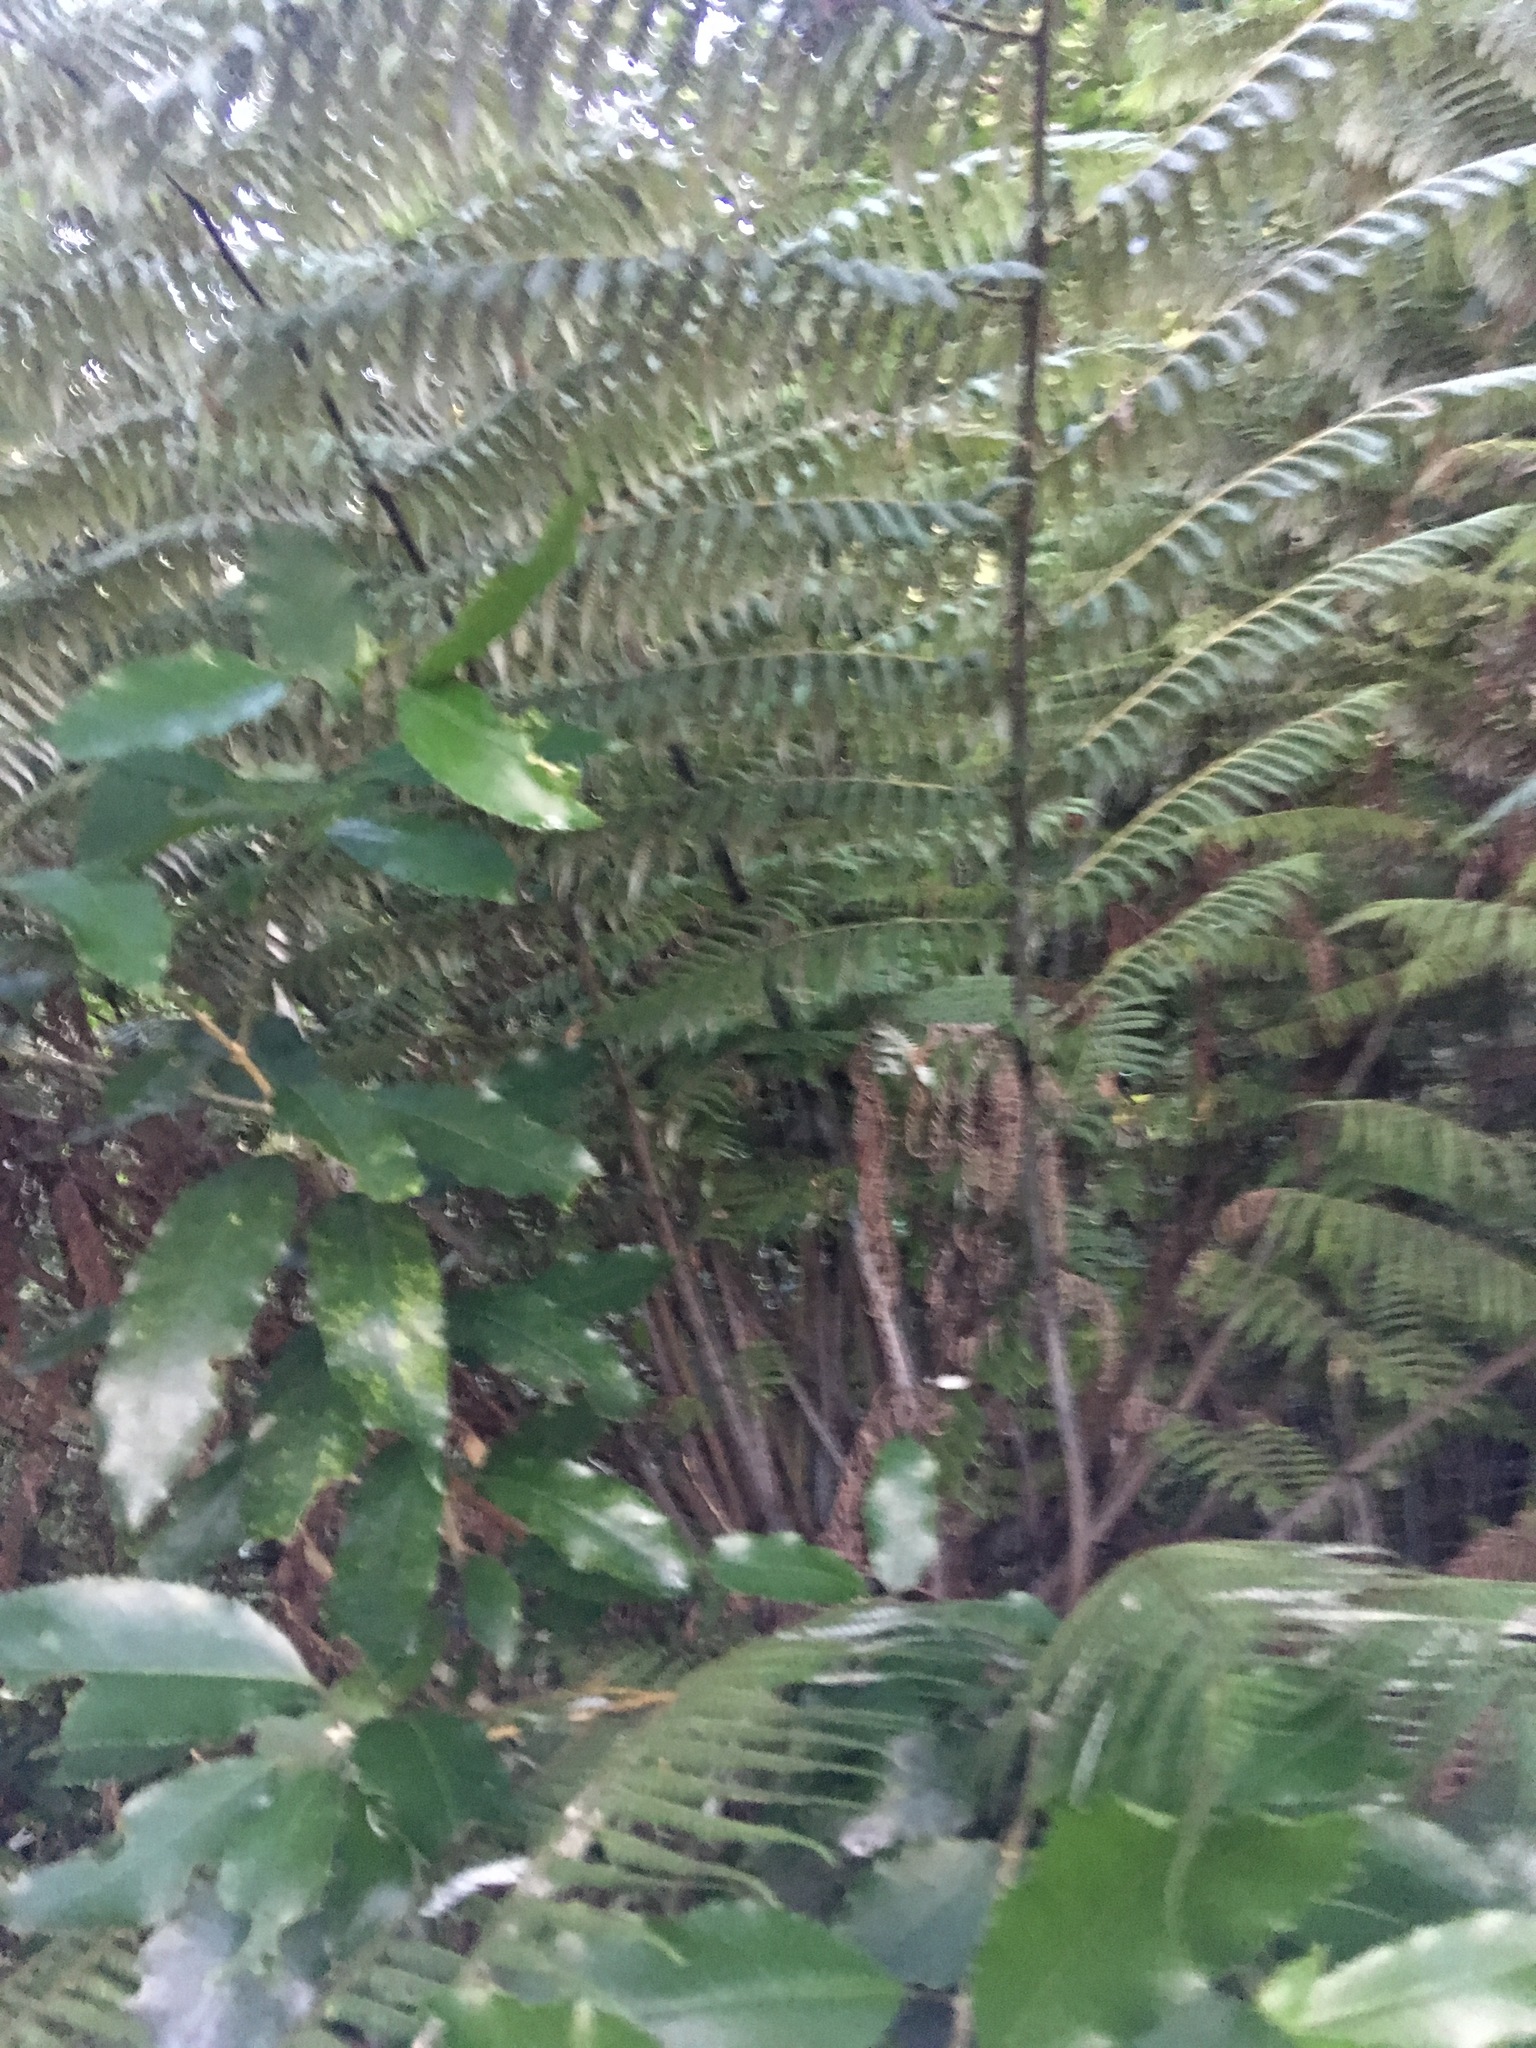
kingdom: Plantae
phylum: Tracheophyta
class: Magnoliopsida
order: Malpighiales
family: Violaceae
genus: Melicytus
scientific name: Melicytus ramiflorus
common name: Mahoe
